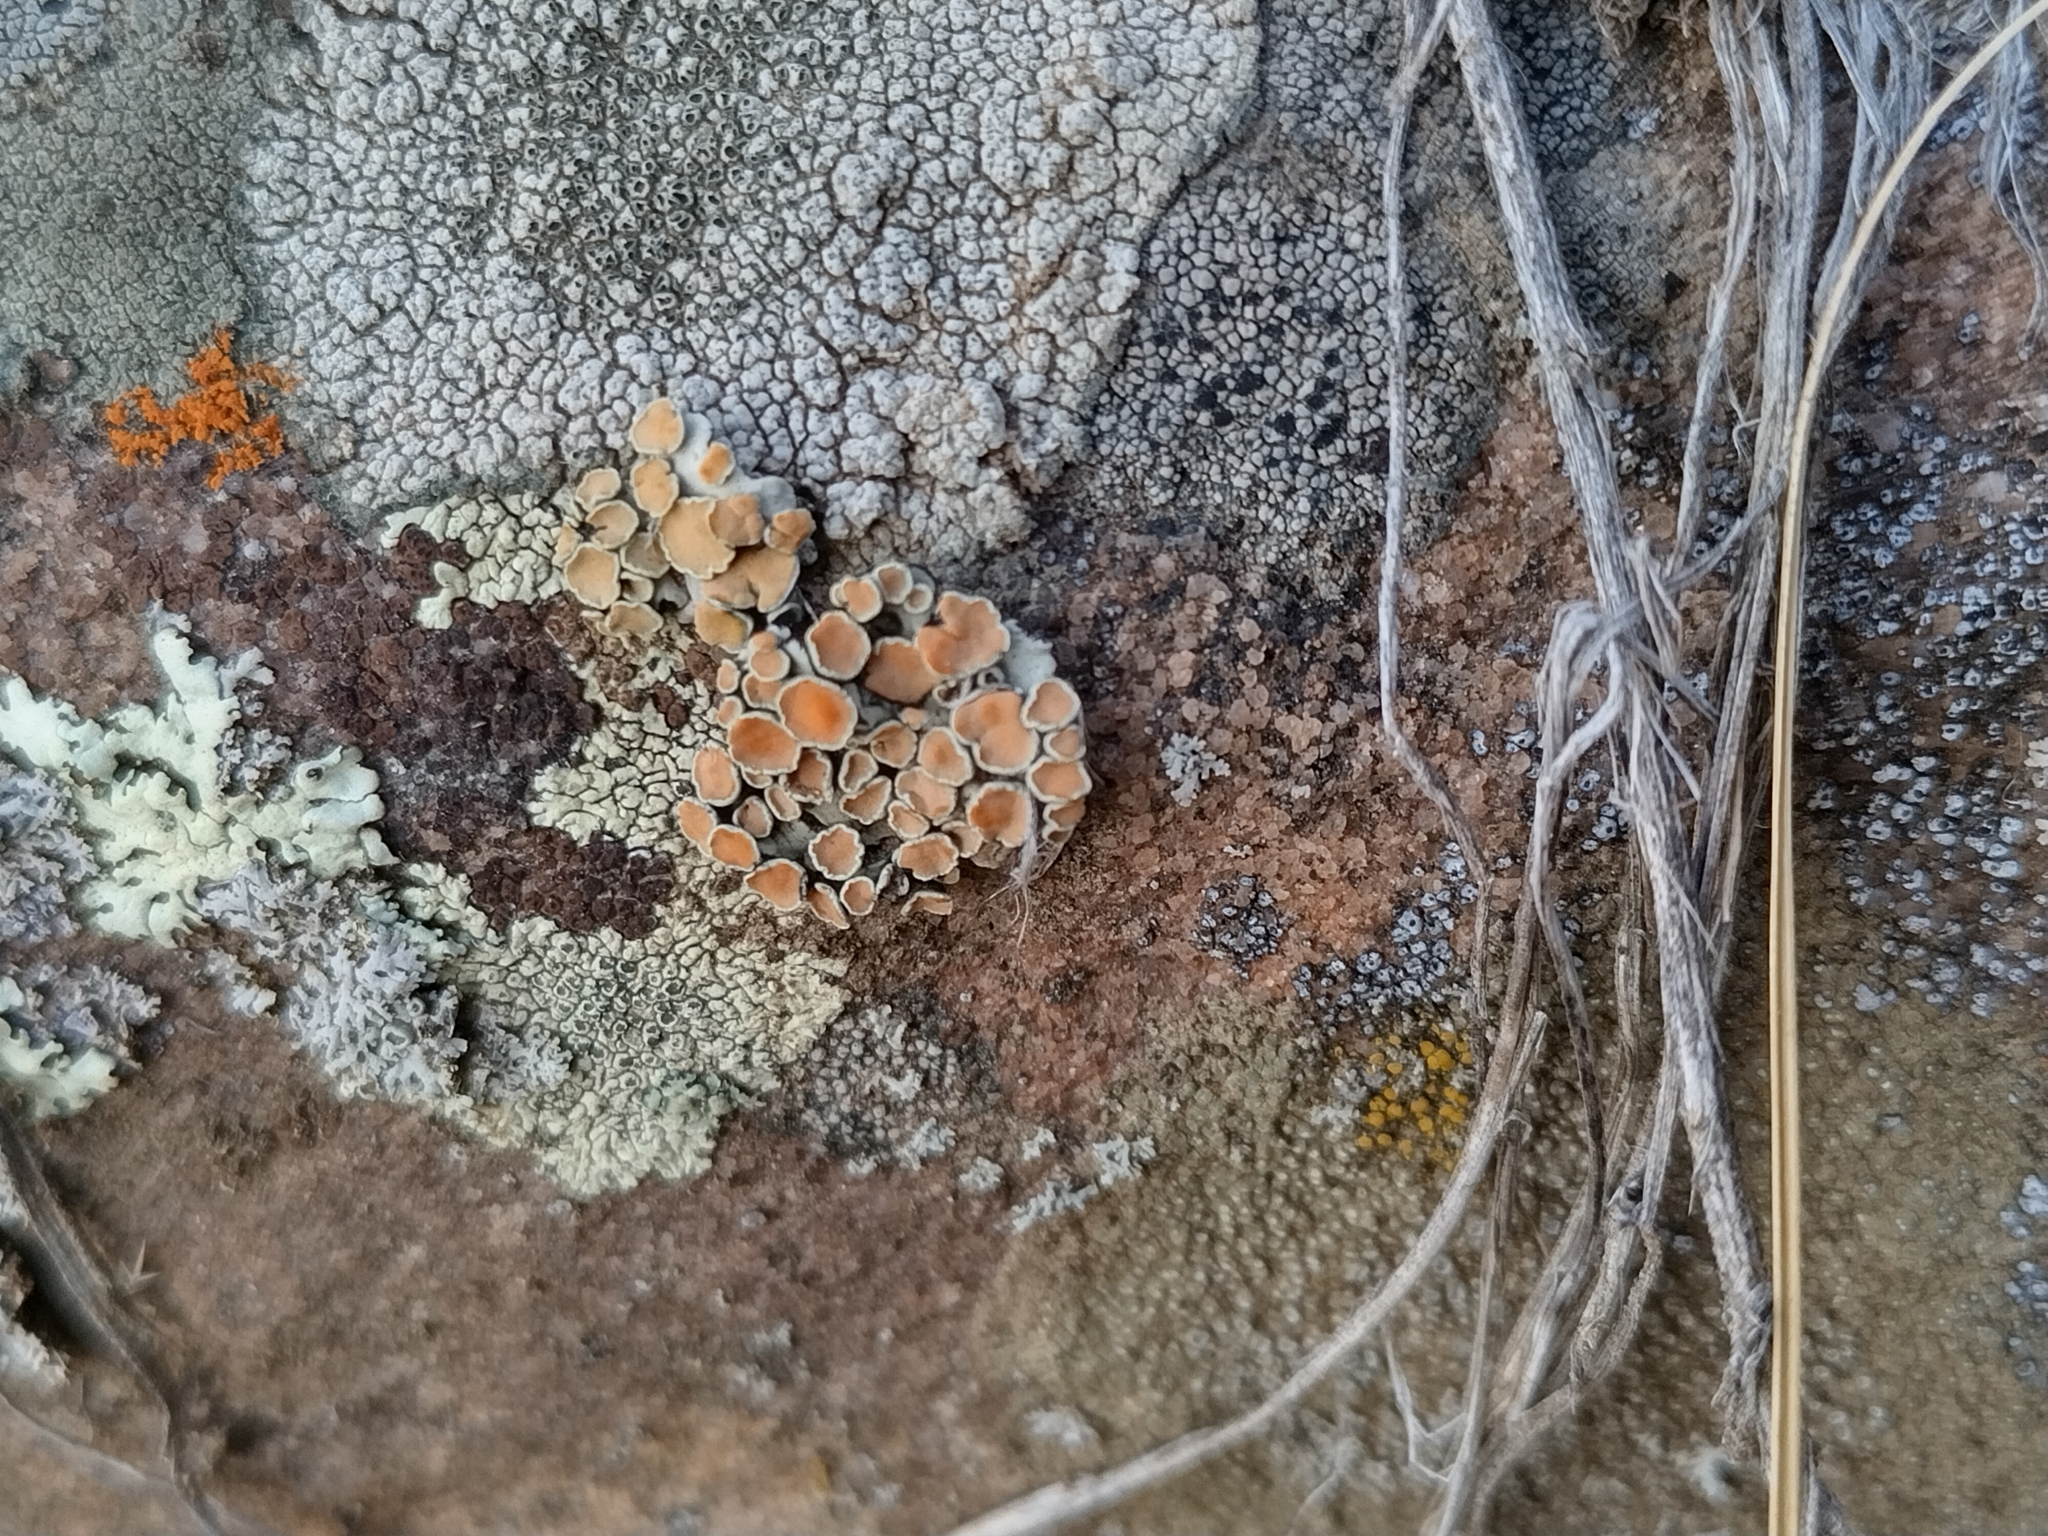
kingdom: Fungi
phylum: Ascomycota
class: Lecanoromycetes
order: Lecanorales
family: Lecanoraceae
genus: Omphalodina
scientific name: Omphalodina chrysoleuca
